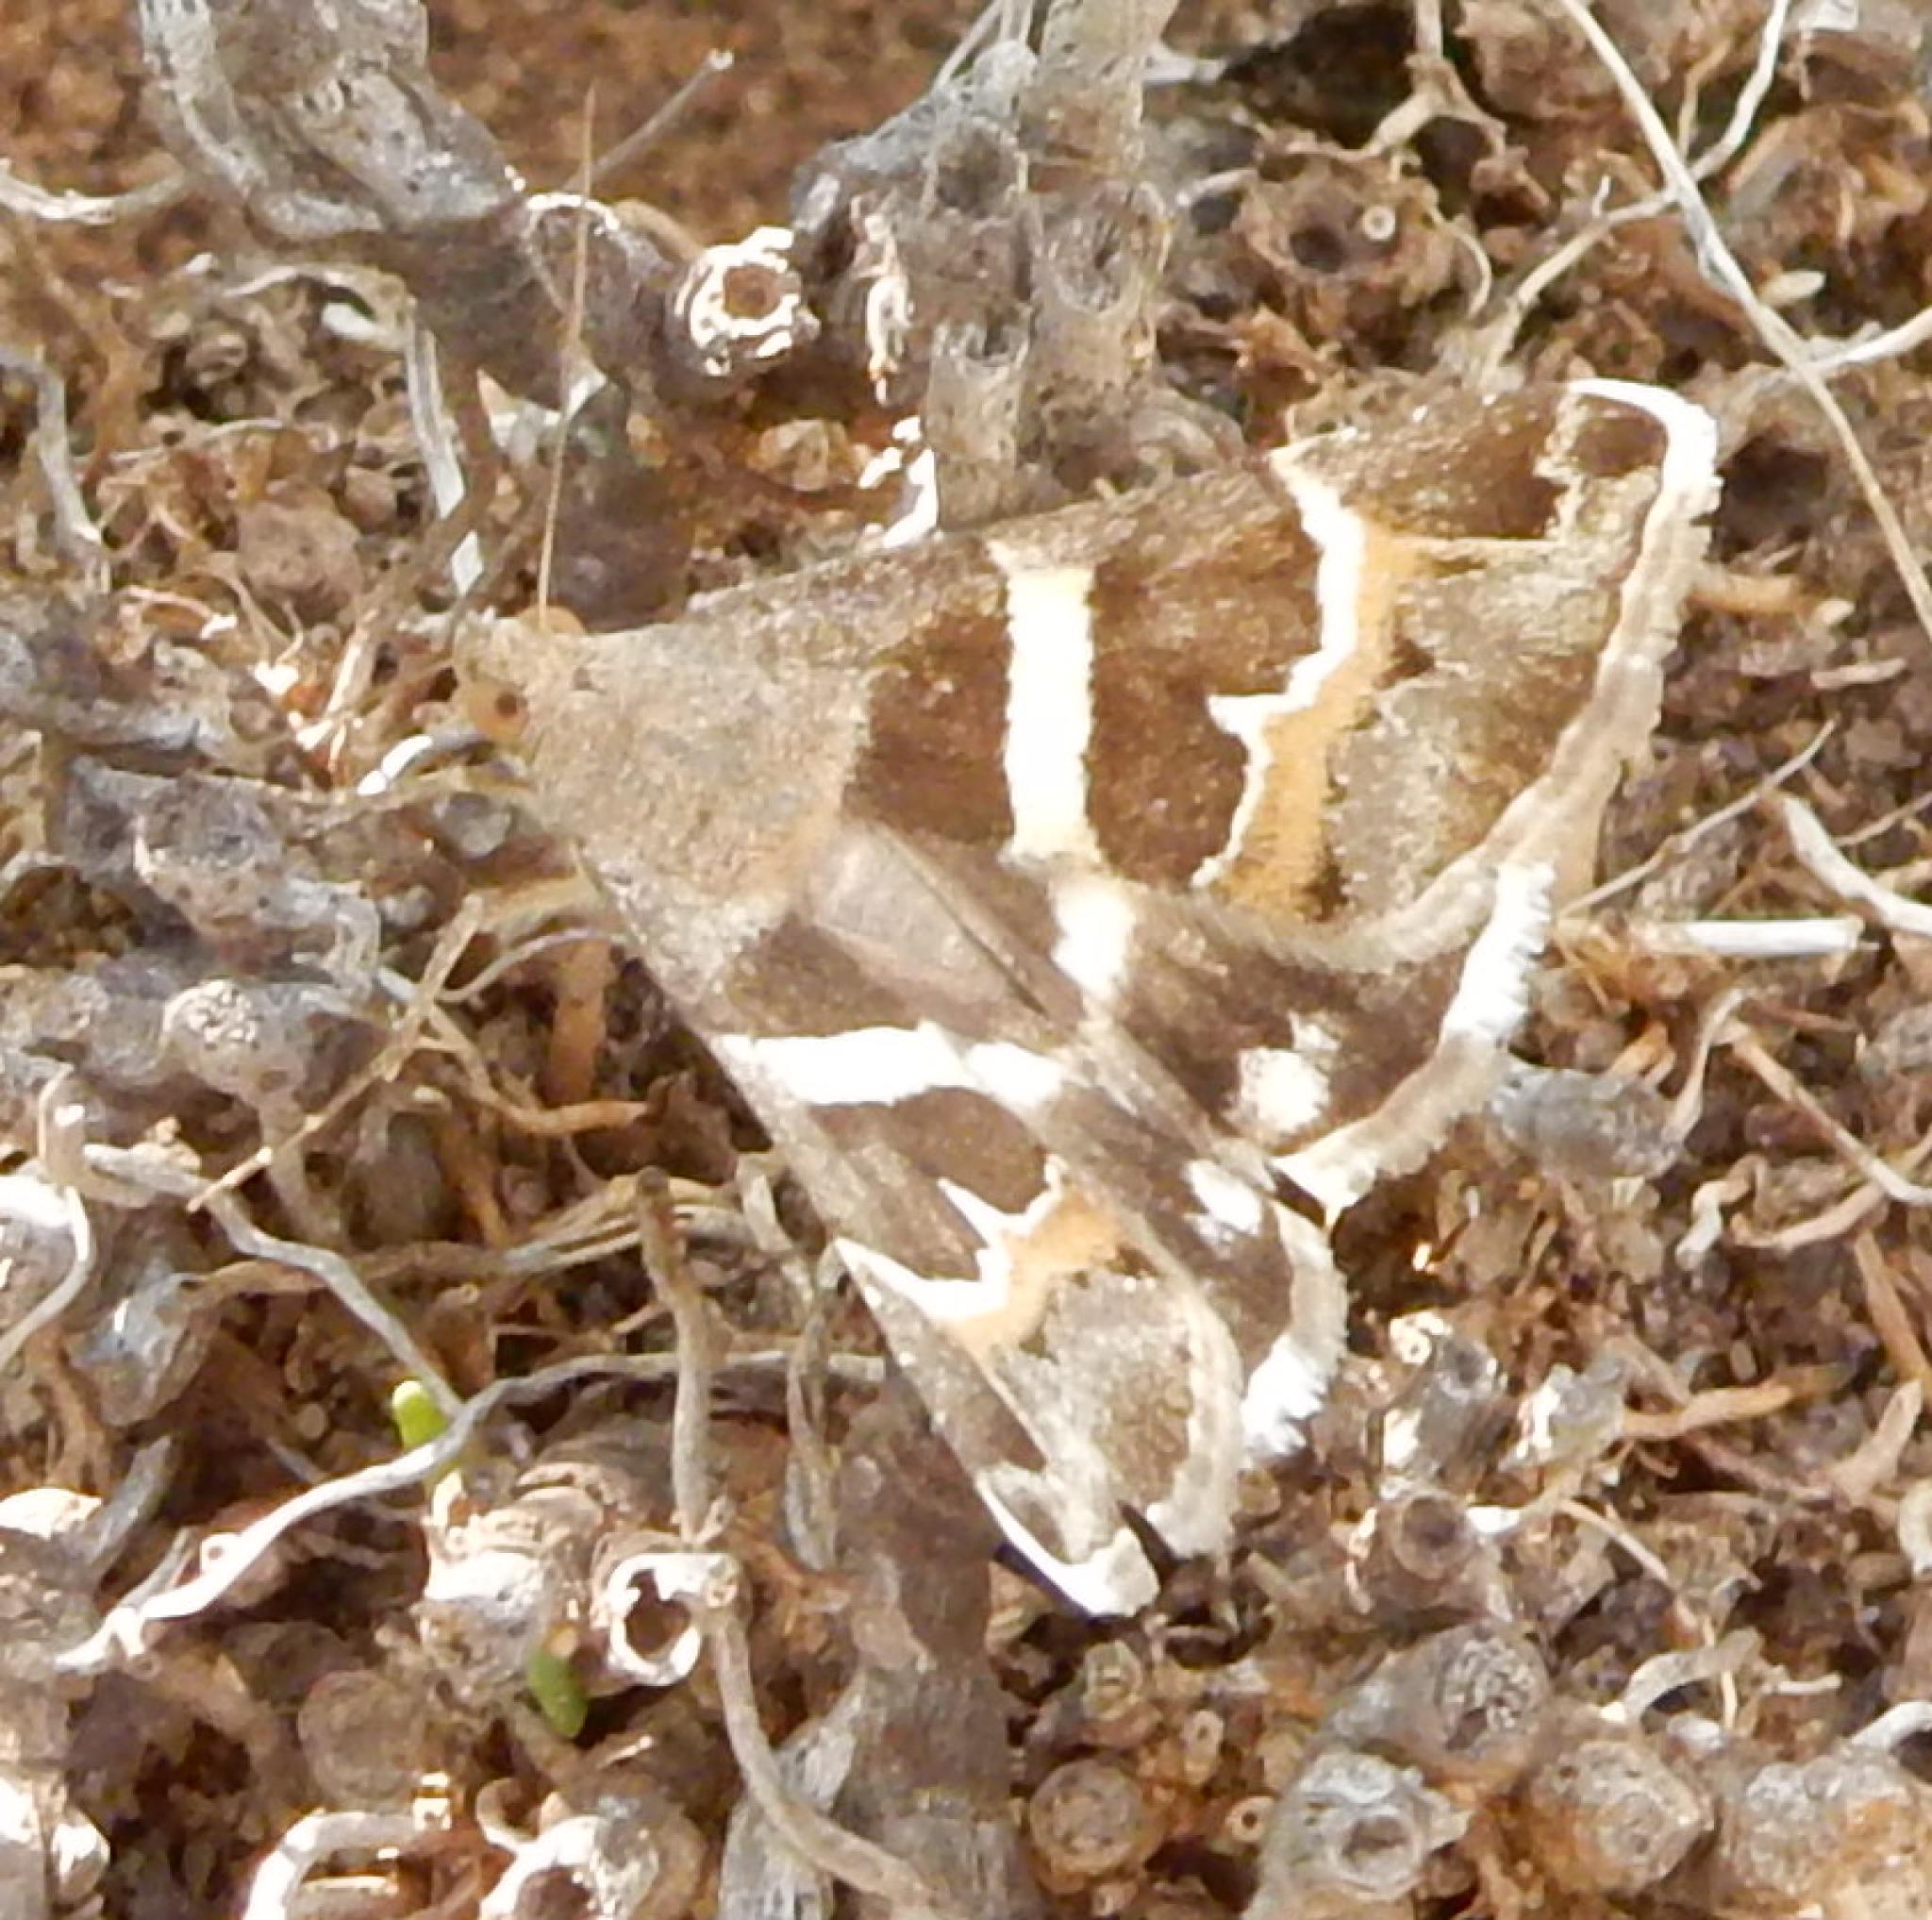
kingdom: Animalia
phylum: Arthropoda
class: Insecta
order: Lepidoptera
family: Erebidae
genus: Grammodes
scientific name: Grammodes stolida
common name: Geometrician
